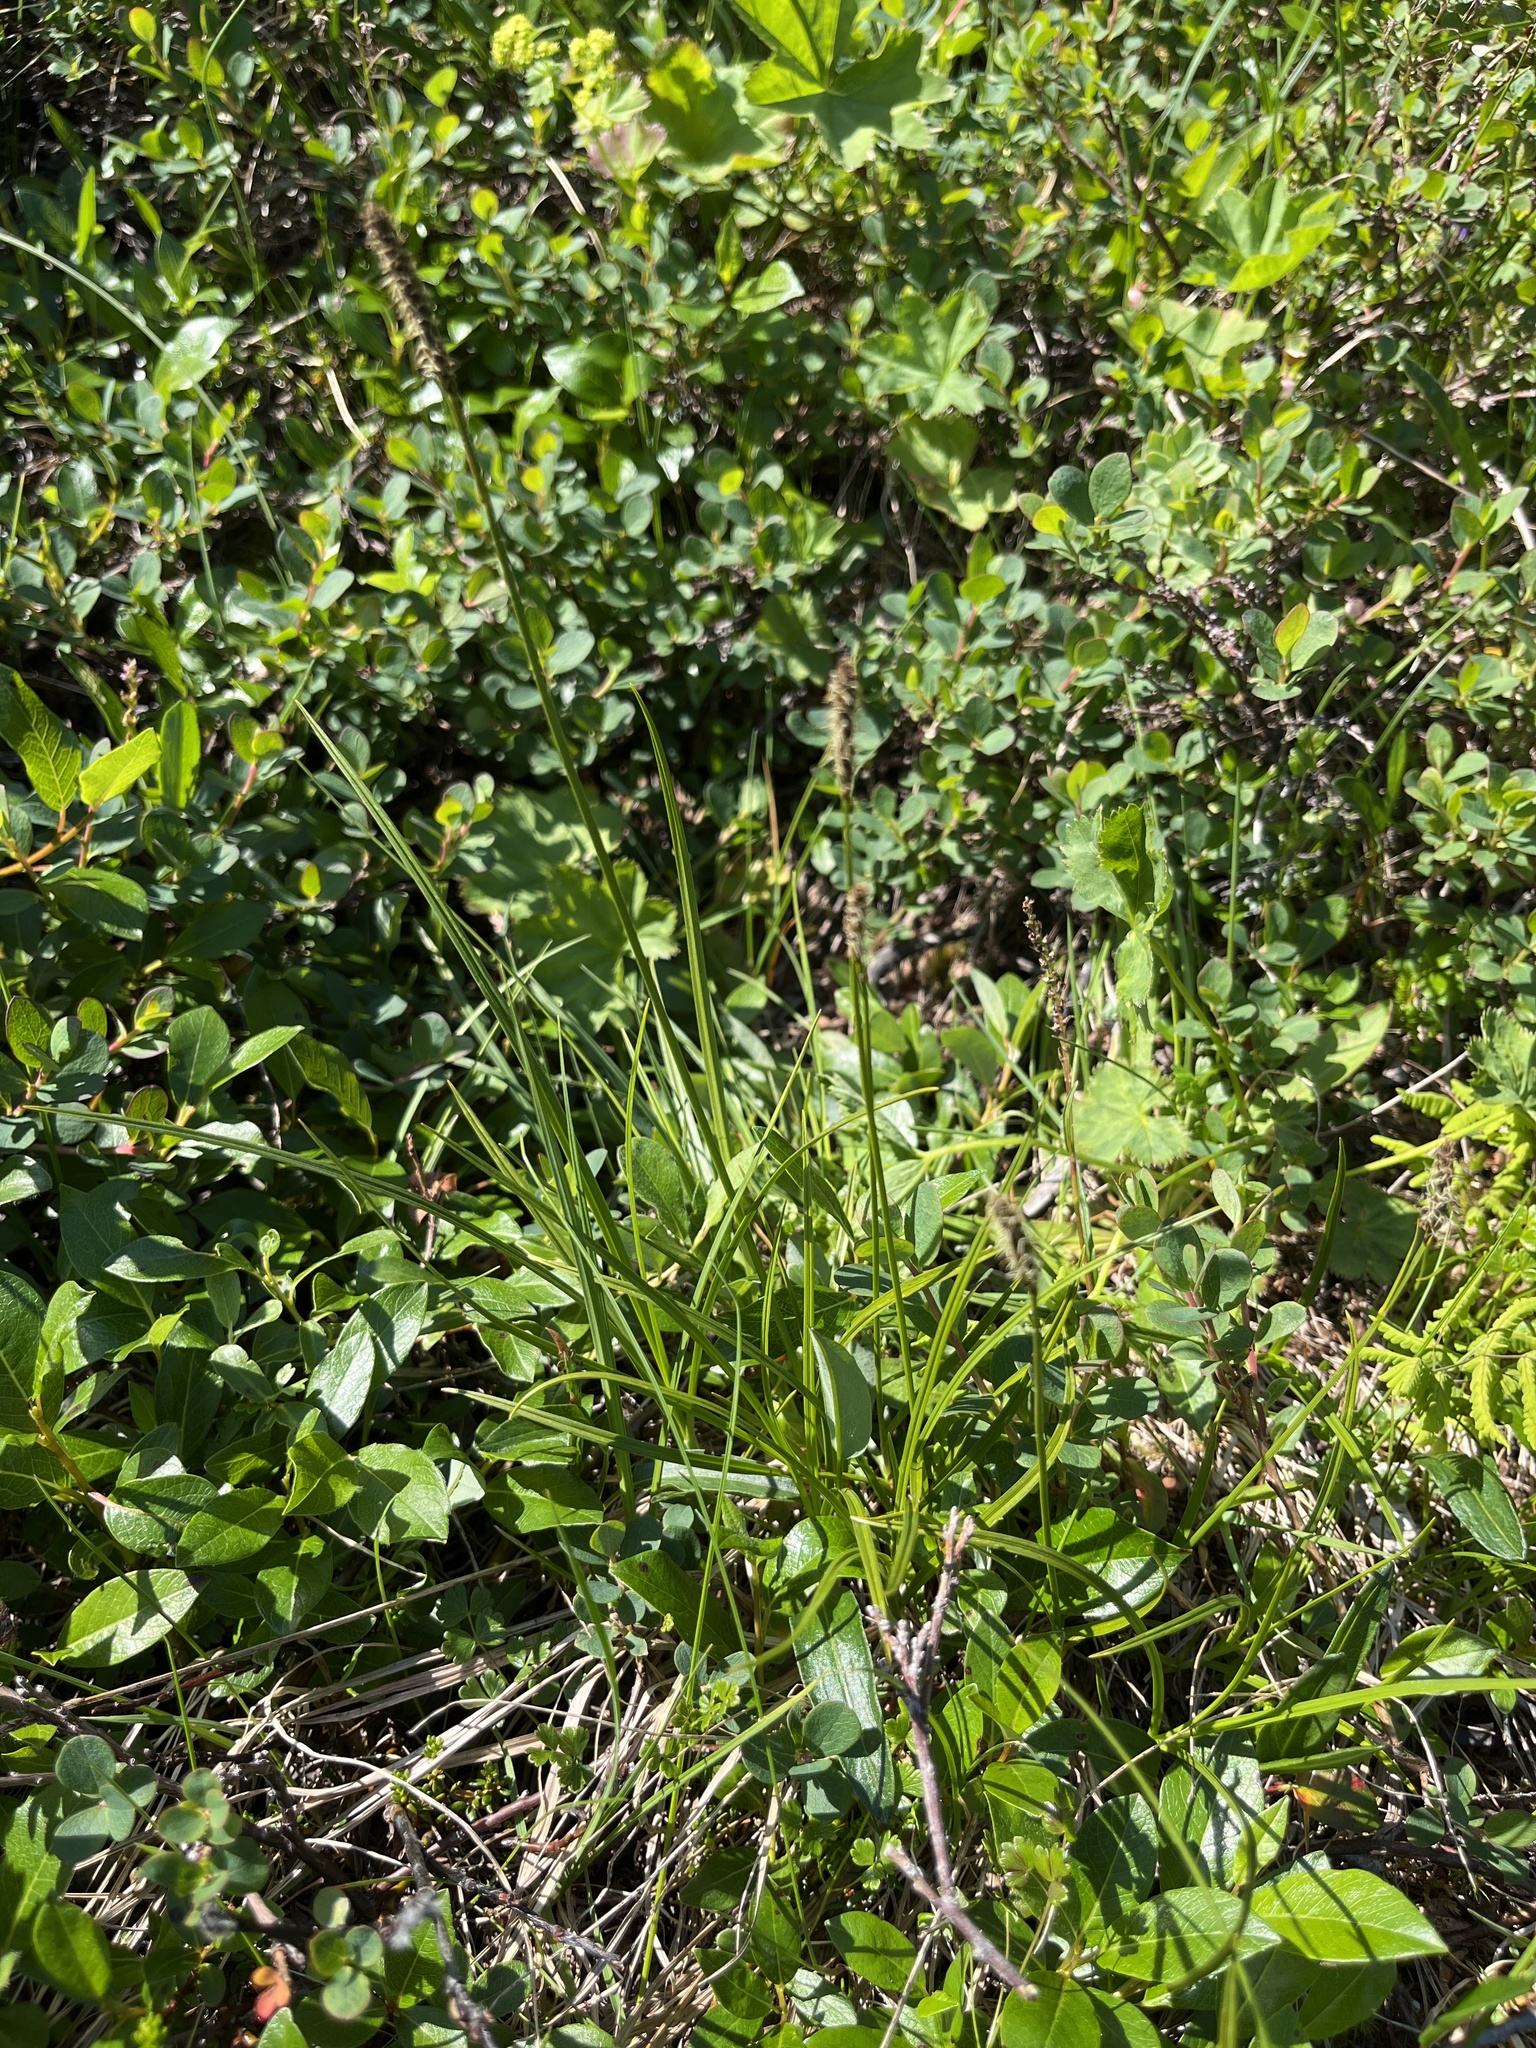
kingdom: Plantae
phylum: Tracheophyta
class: Liliopsida
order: Poales
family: Cyperaceae
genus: Carex
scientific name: Carex scirpoidea
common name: Canada single-spike sedge
